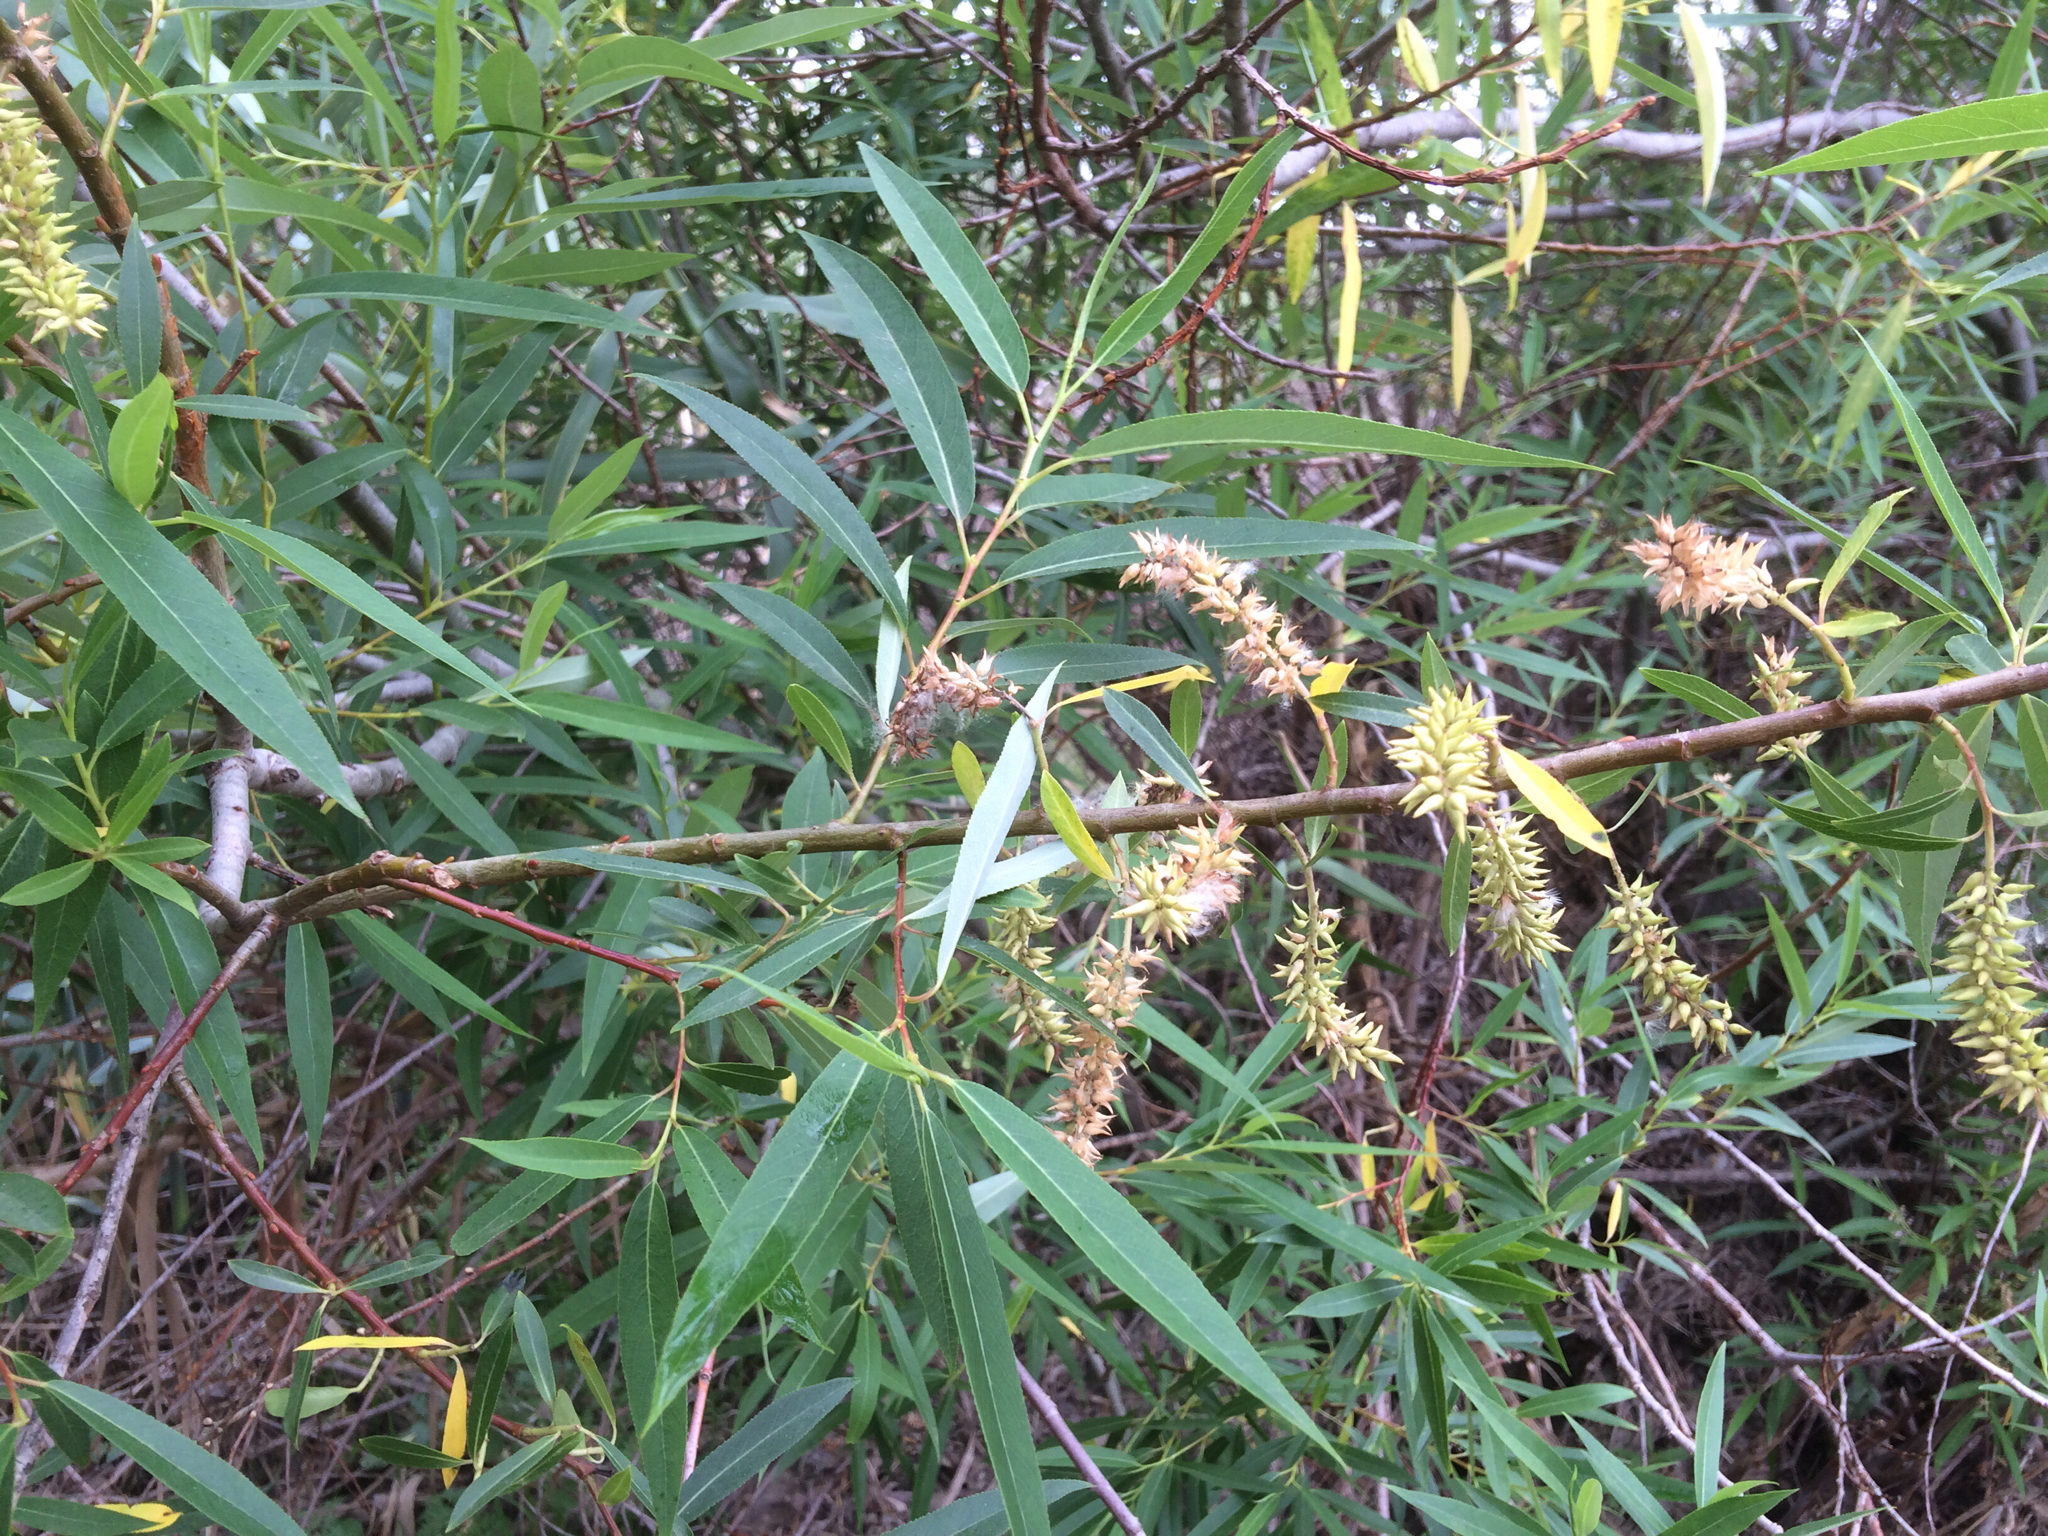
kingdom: Plantae
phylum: Tracheophyta
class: Magnoliopsida
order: Malpighiales
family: Salicaceae
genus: Salix
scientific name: Salix lucida
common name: Shining willow
